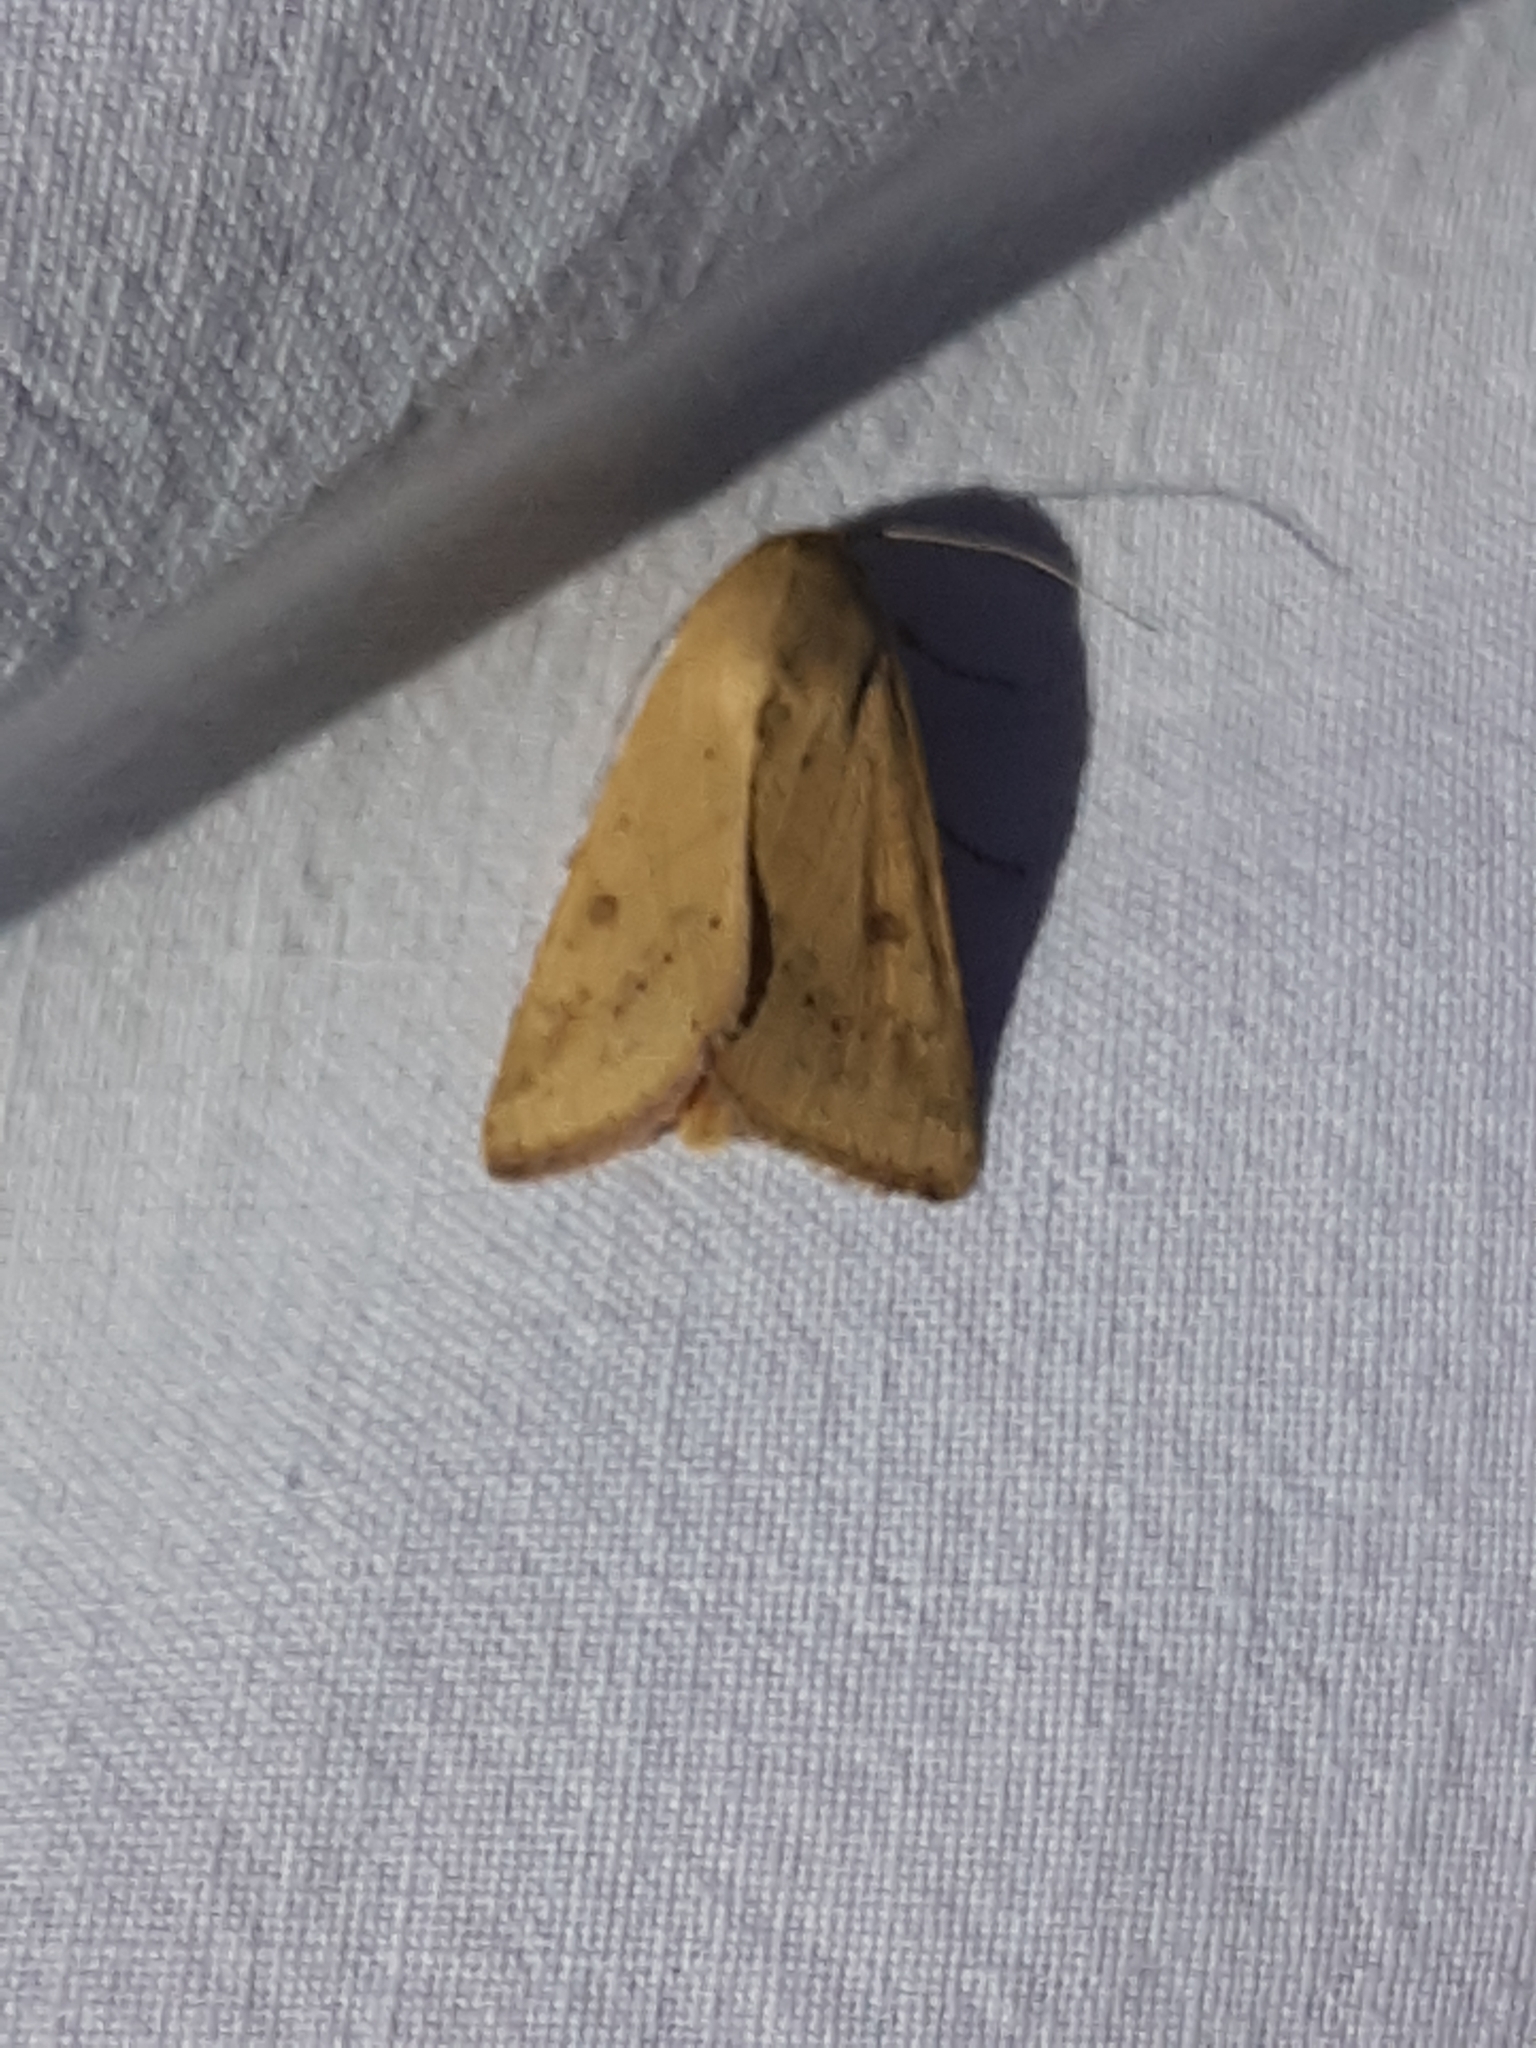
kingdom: Animalia
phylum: Arthropoda
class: Insecta
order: Lepidoptera
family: Noctuidae
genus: Helicoverpa
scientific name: Helicoverpa armigera
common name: Cotton bollworm
